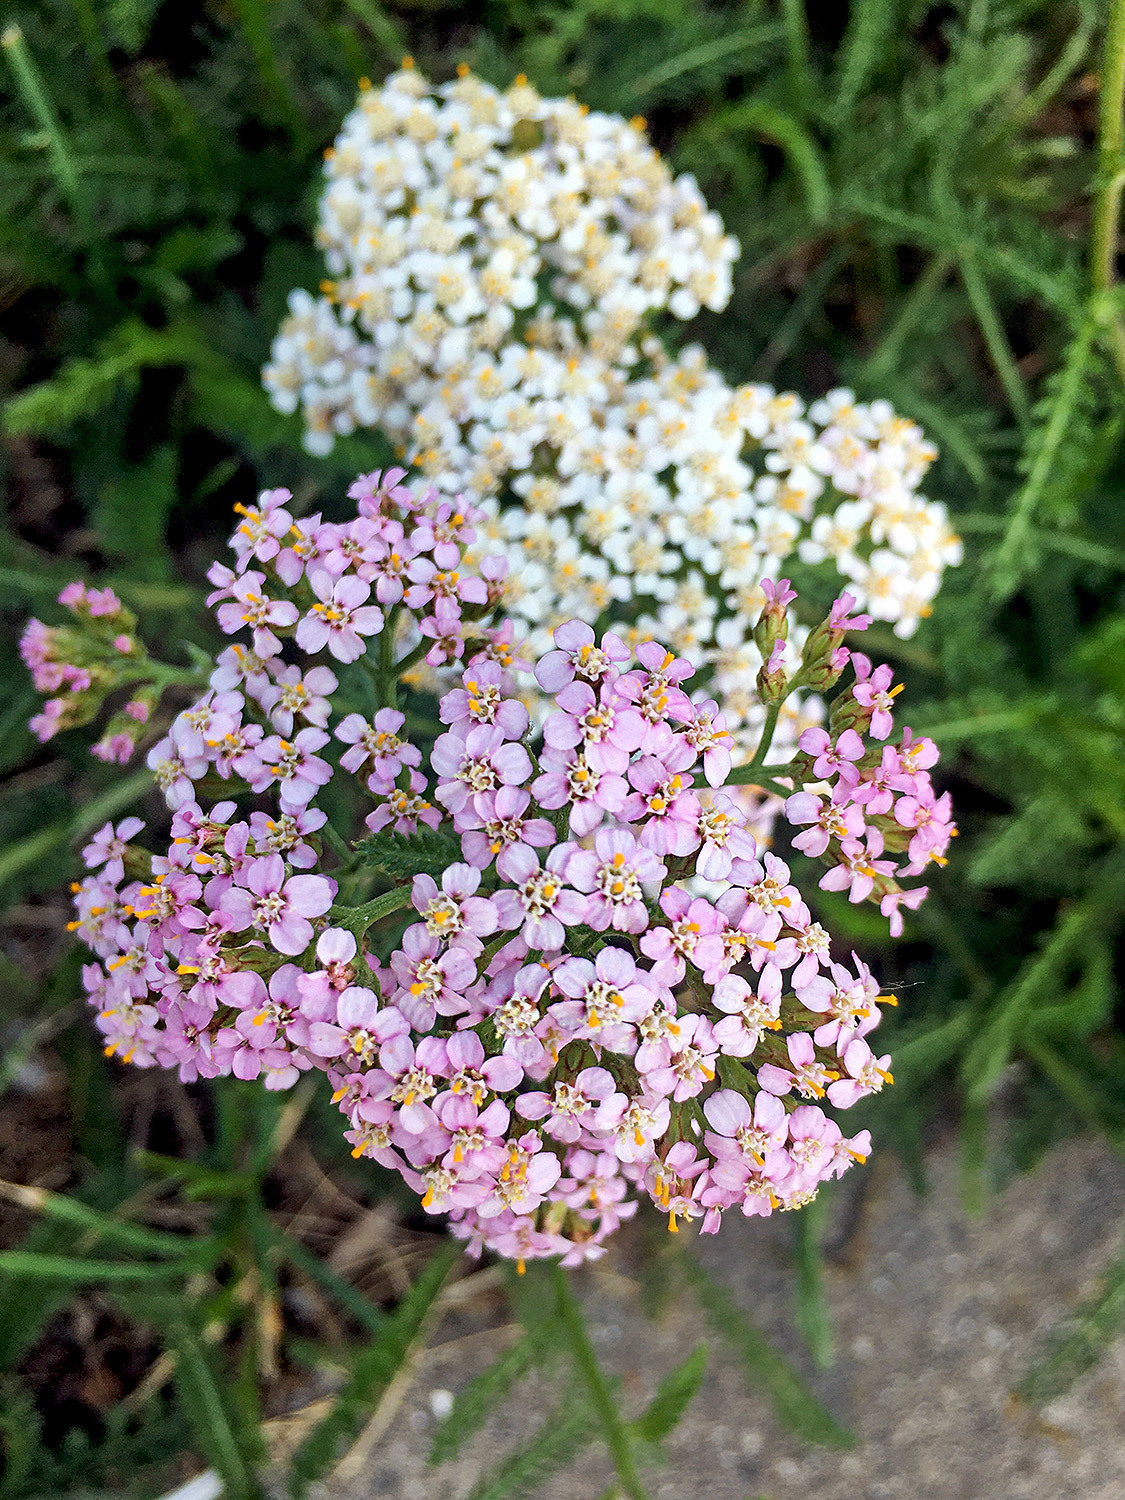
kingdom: Plantae
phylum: Tracheophyta
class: Magnoliopsida
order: Asterales
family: Asteraceae
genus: Achillea
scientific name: Achillea millefolium
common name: Yarrow
